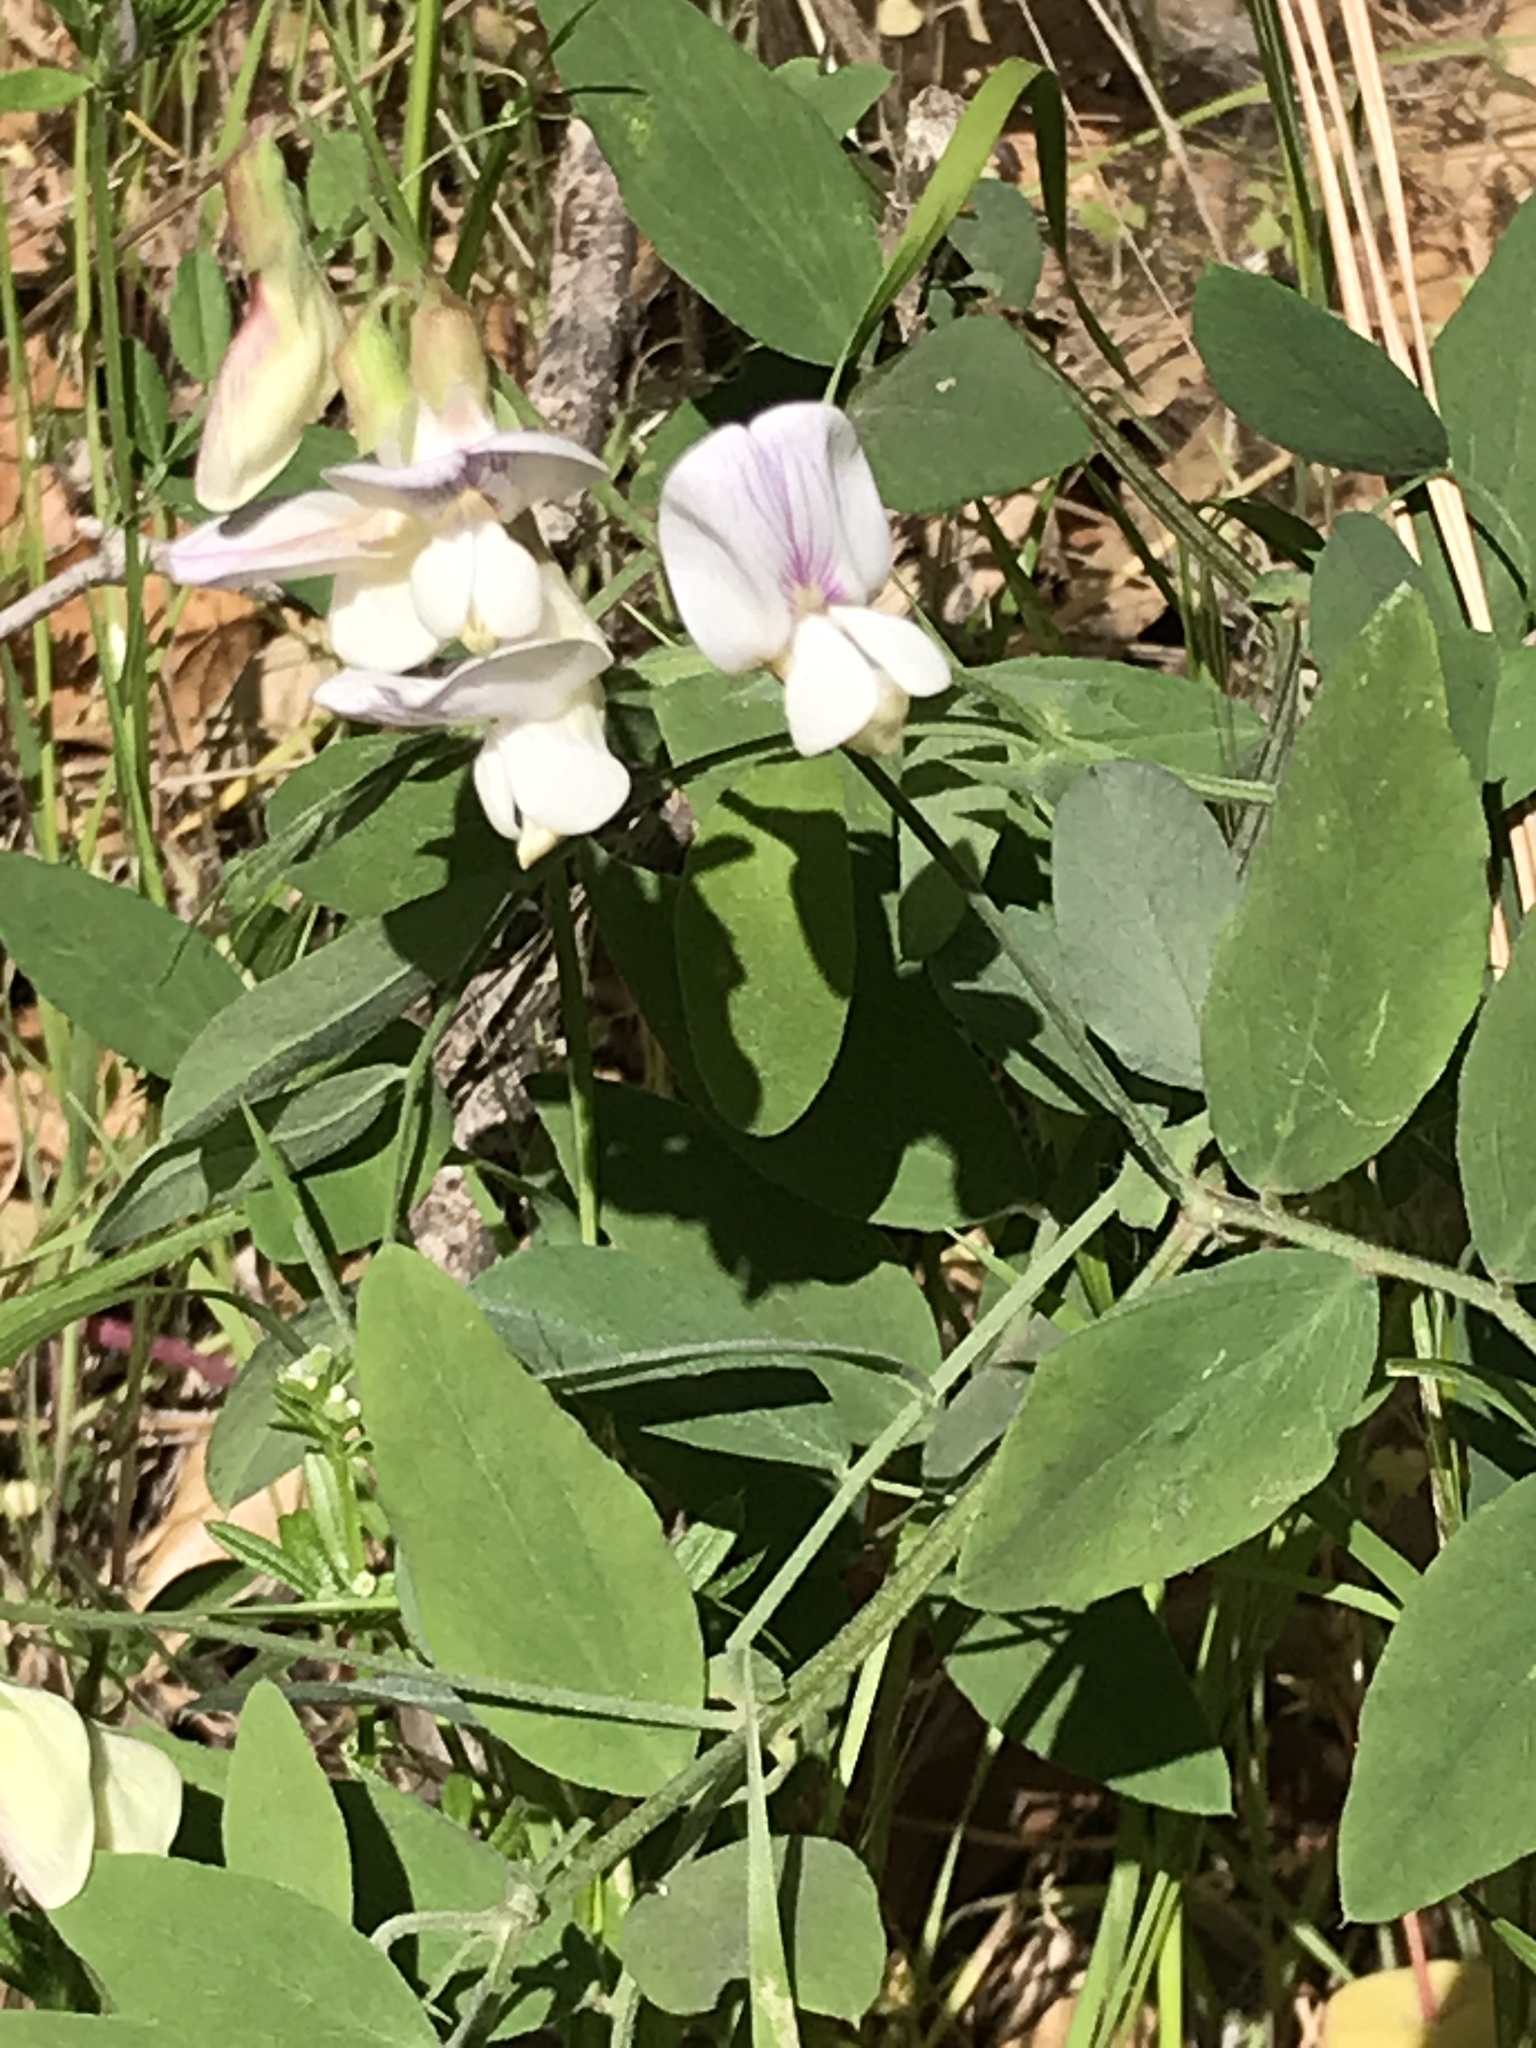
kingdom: Plantae
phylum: Tracheophyta
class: Magnoliopsida
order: Fabales
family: Fabaceae
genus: Lathyrus
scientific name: Lathyrus vestitus
